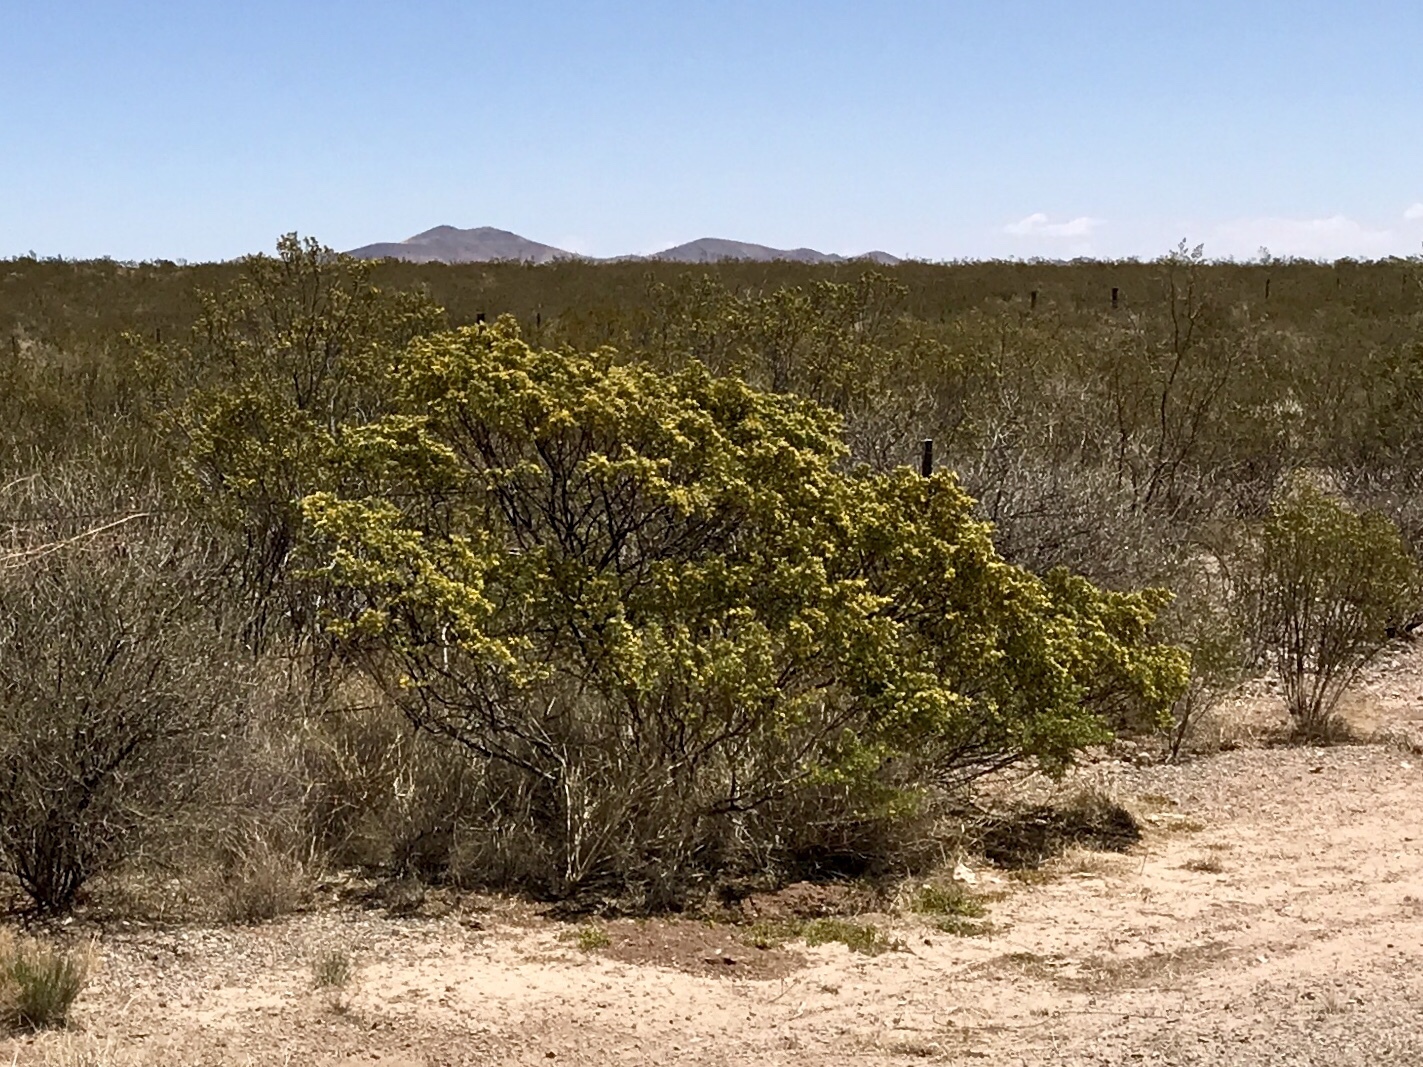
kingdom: Plantae
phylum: Tracheophyta
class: Magnoliopsida
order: Zygophyllales
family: Zygophyllaceae
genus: Larrea
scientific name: Larrea tridentata
